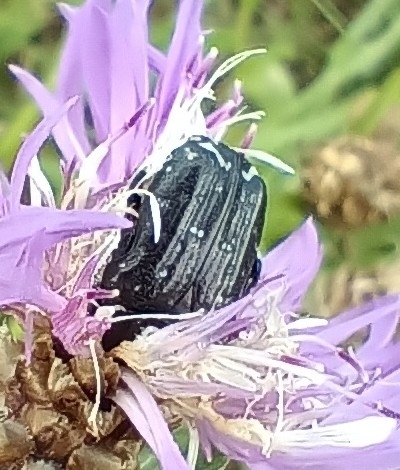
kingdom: Animalia
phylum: Arthropoda
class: Insecta
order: Coleoptera
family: Scarabaeidae
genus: Oxythyrea
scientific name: Oxythyrea funesta
